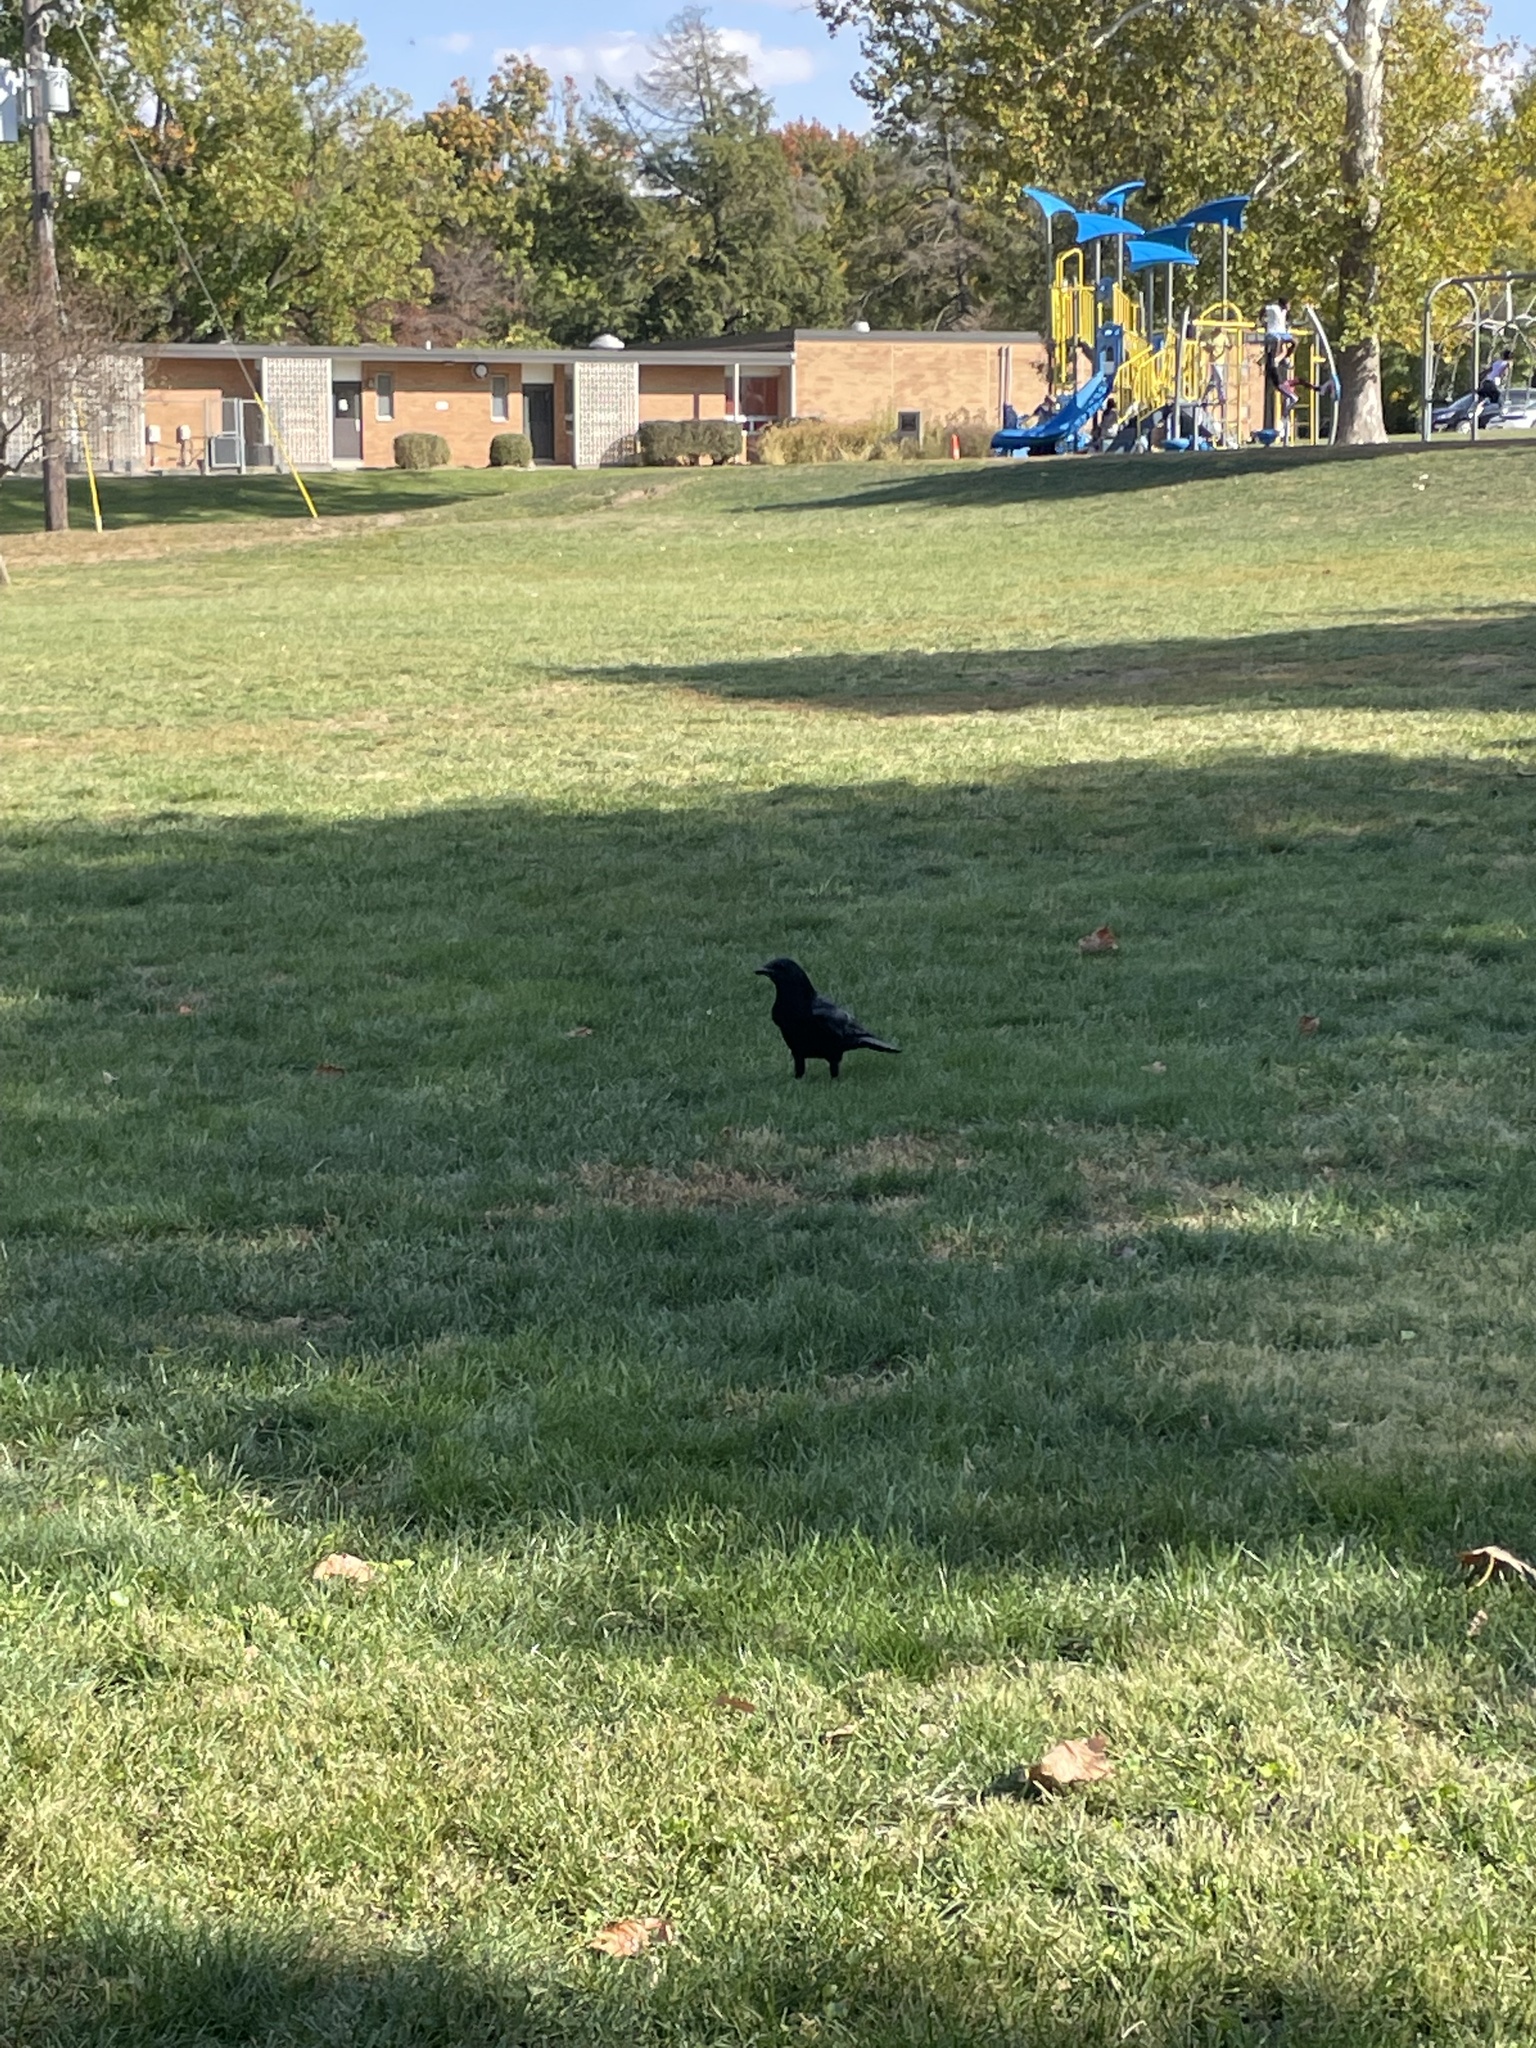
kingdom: Animalia
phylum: Chordata
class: Aves
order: Passeriformes
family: Corvidae
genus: Corvus
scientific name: Corvus brachyrhynchos
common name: American crow
